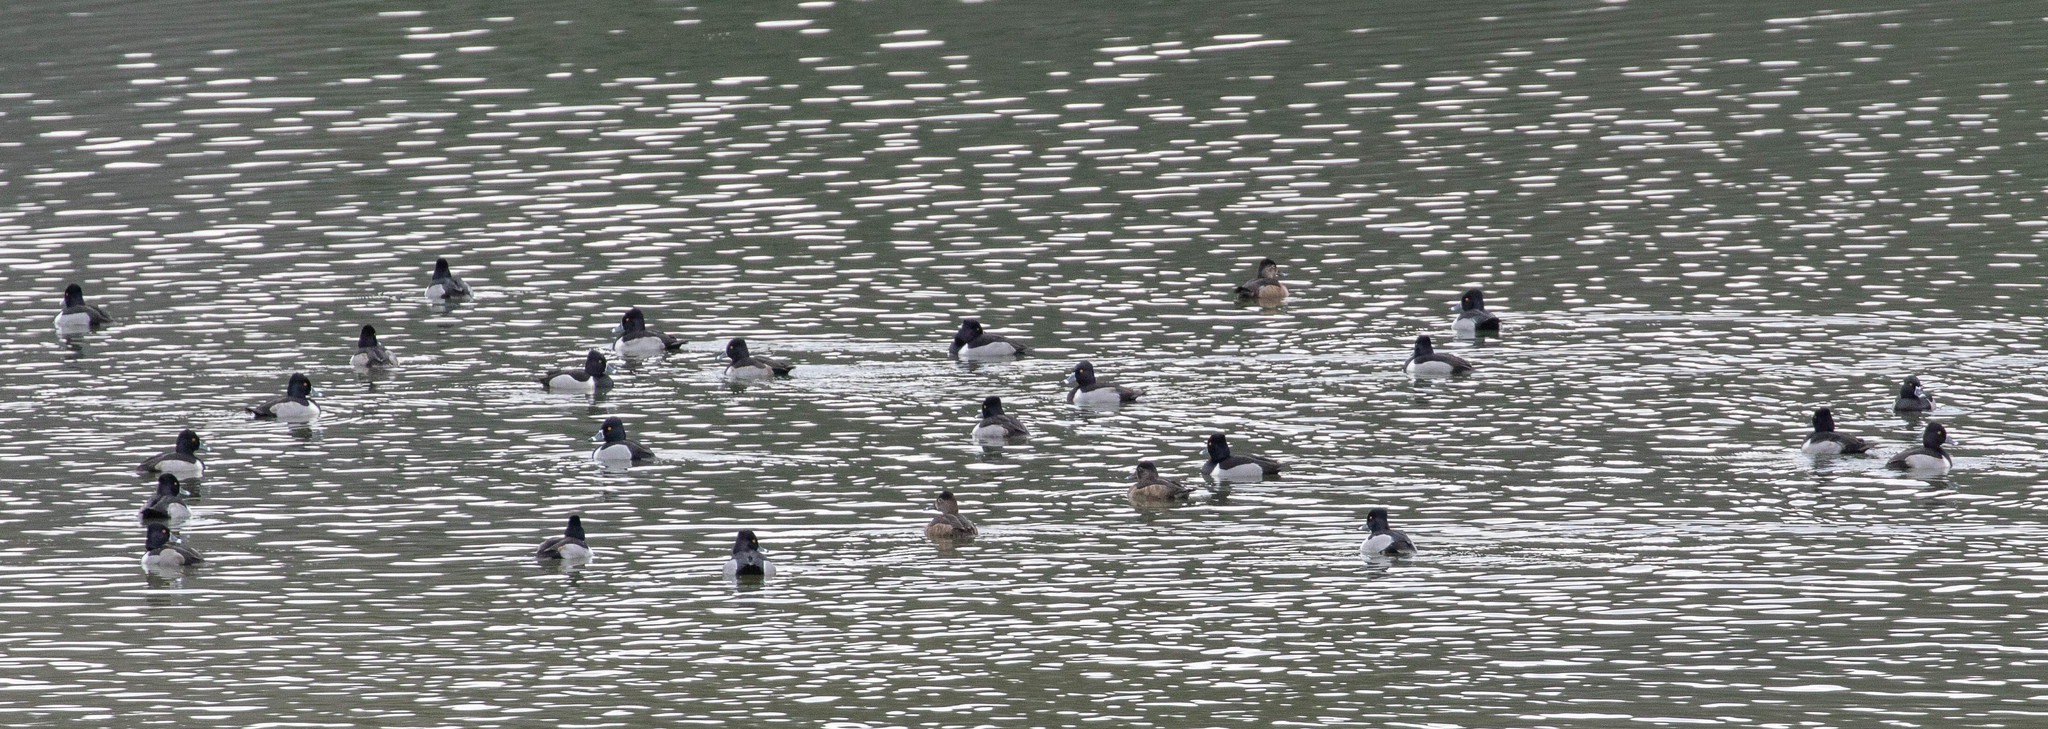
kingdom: Animalia
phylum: Chordata
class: Aves
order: Anseriformes
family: Anatidae
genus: Aythya
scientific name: Aythya collaris
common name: Ring-necked duck
